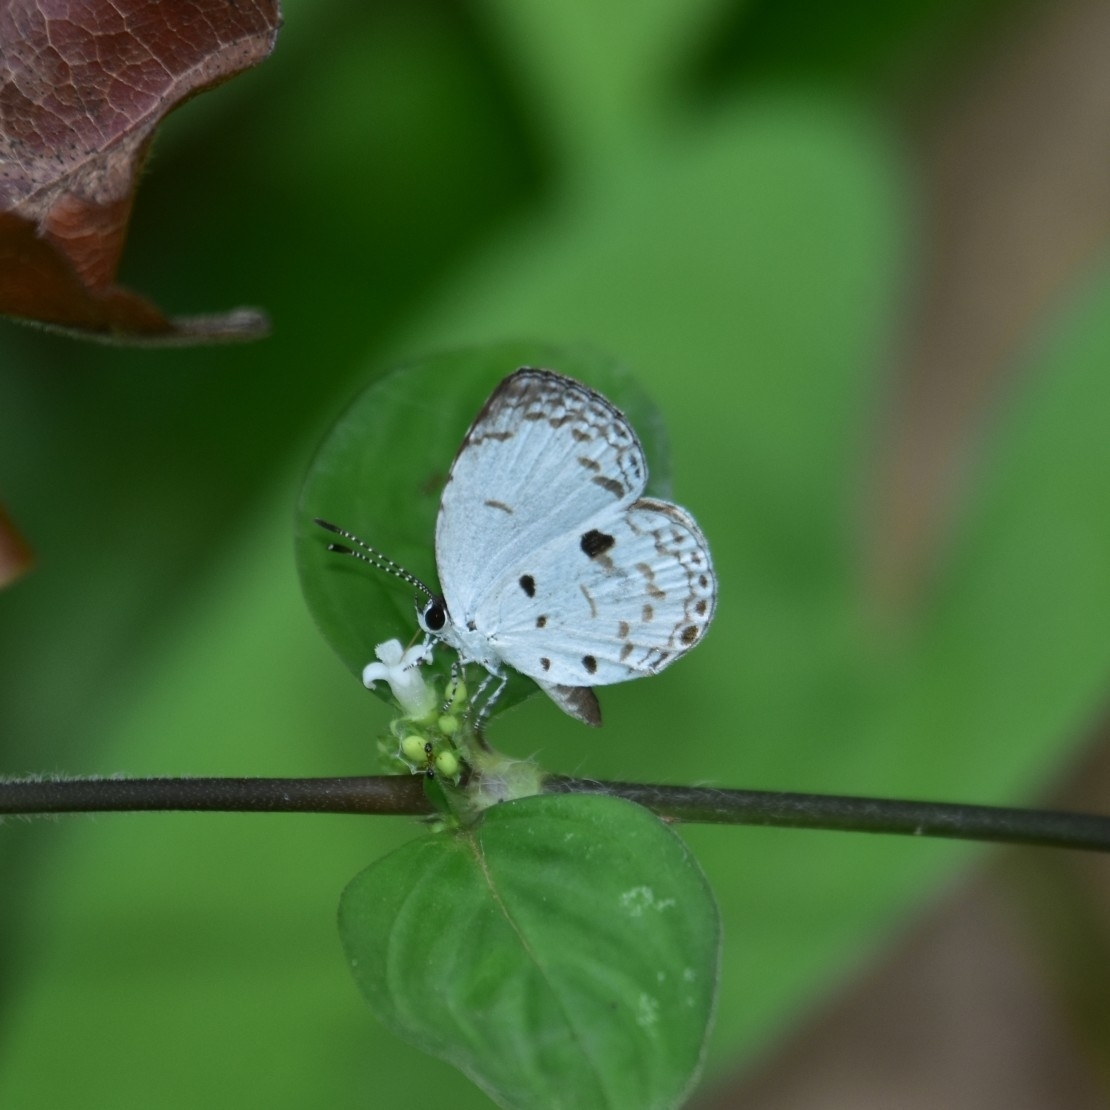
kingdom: Animalia
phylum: Arthropoda
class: Insecta
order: Lepidoptera
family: Lycaenidae
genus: Neopithecops
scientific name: Neopithecops zalmora
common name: Quaker
